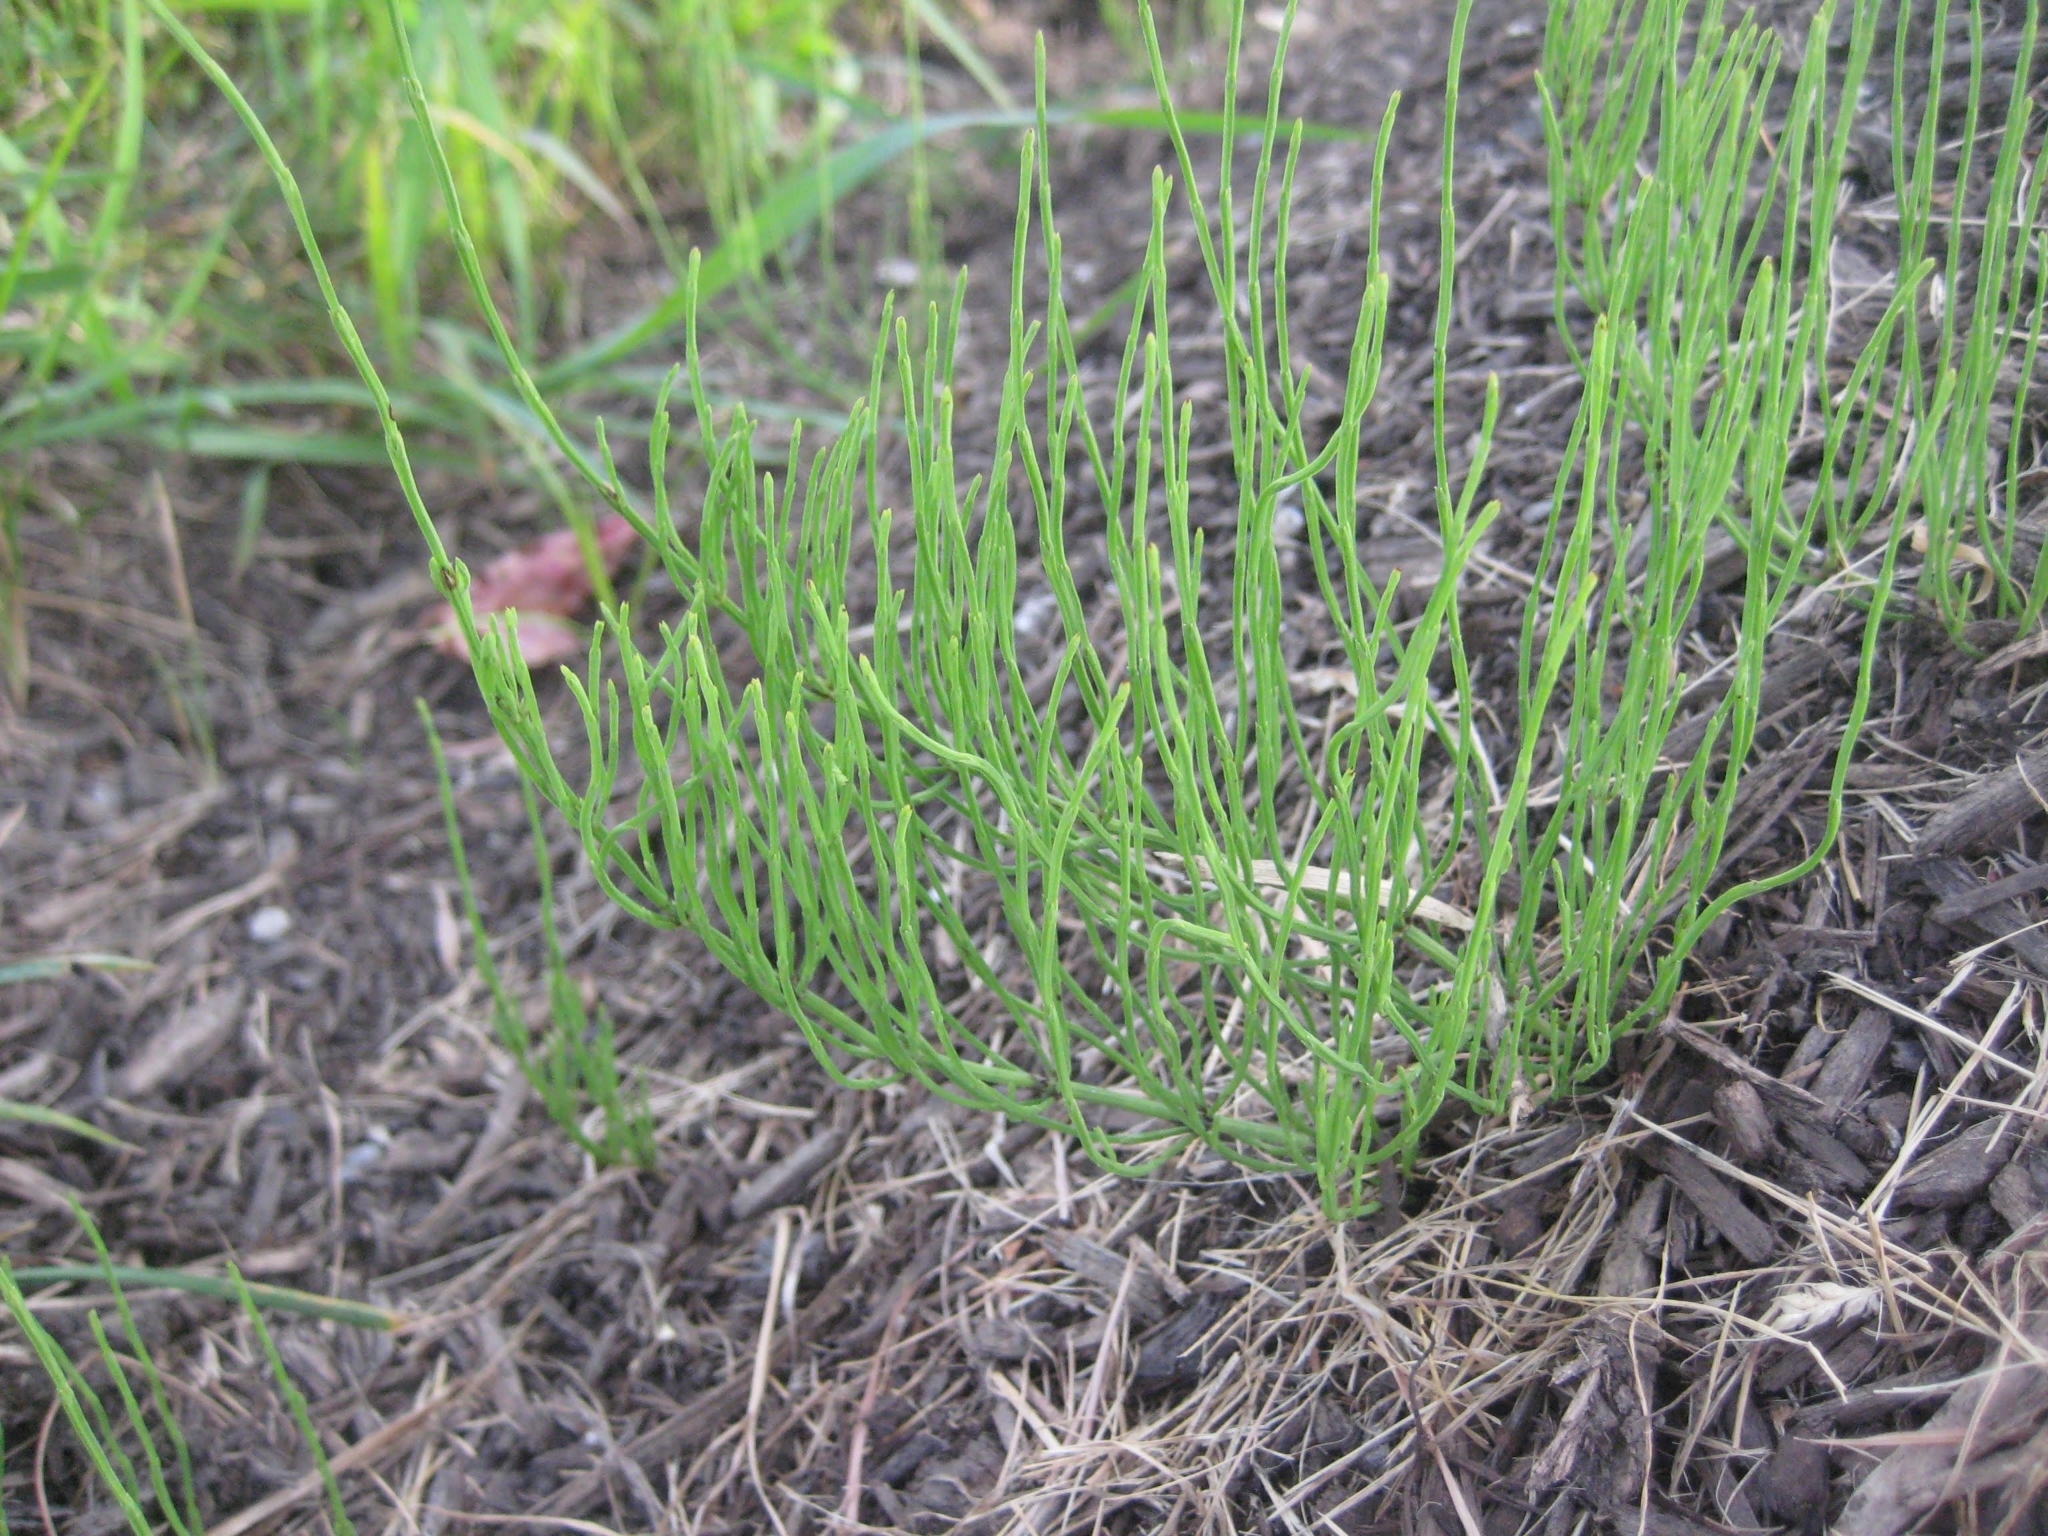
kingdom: Plantae
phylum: Tracheophyta
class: Polypodiopsida
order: Equisetales
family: Equisetaceae
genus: Equisetum
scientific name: Equisetum arvense
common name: Field horsetail
